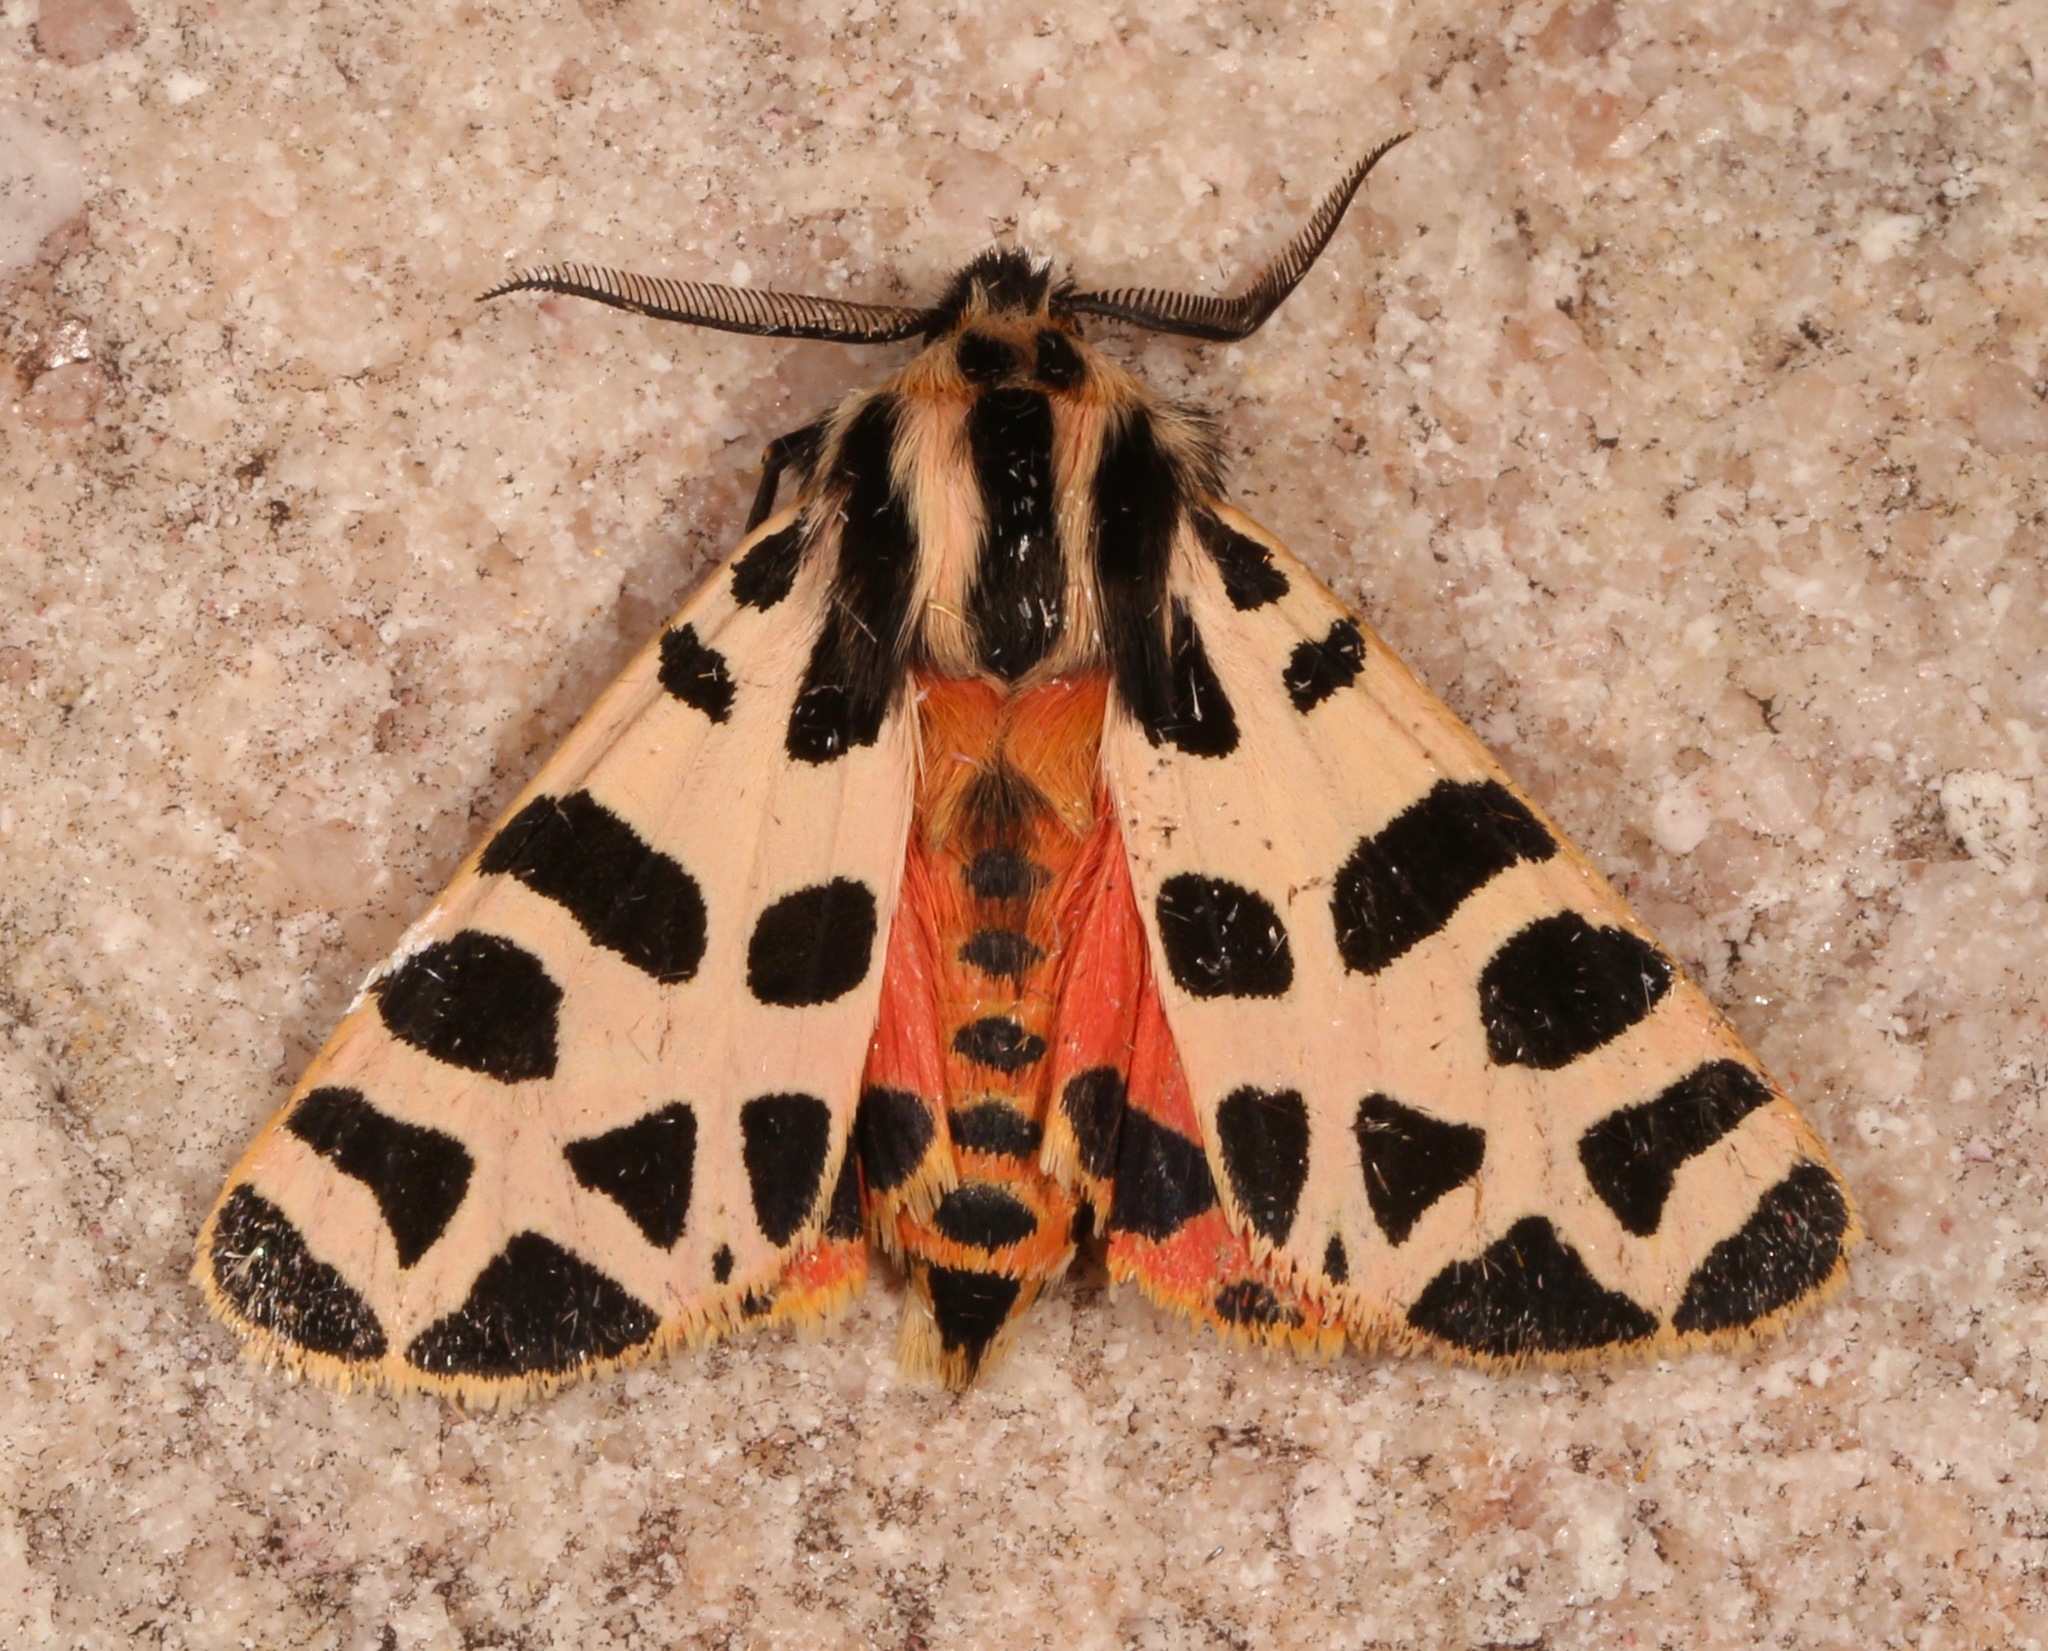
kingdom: Animalia
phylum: Arthropoda
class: Insecta
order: Lepidoptera
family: Erebidae
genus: Apantesis
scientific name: Apantesis incorrupta
